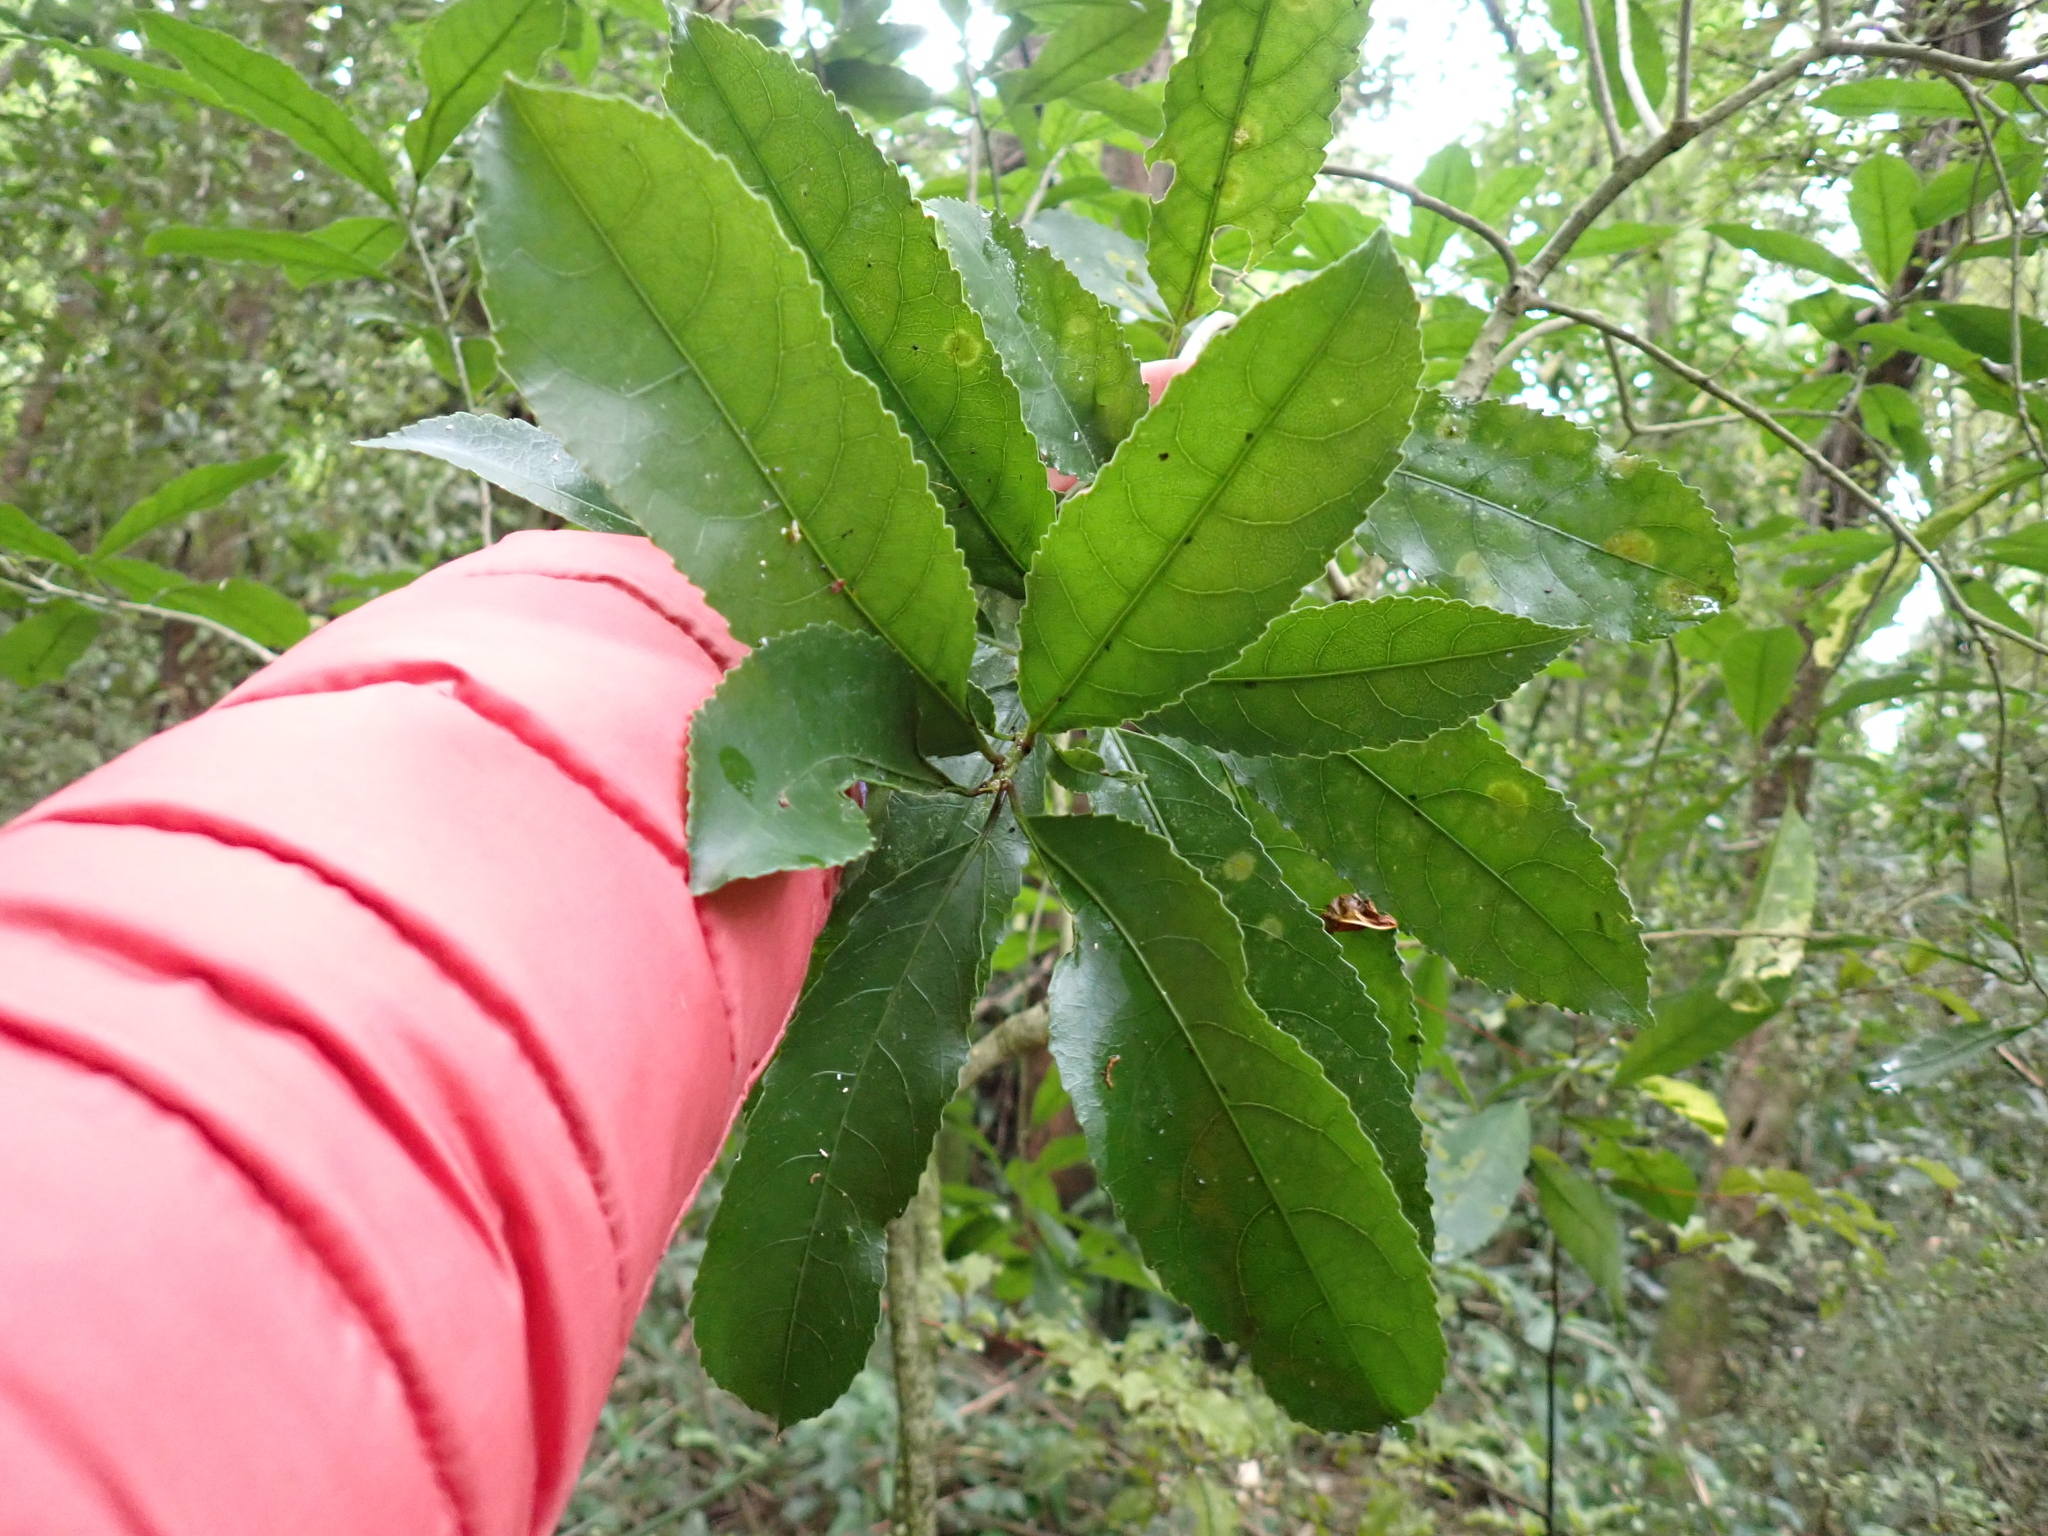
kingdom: Plantae
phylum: Tracheophyta
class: Magnoliopsida
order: Malpighiales
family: Violaceae
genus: Melicytus
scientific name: Melicytus ramiflorus
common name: Mahoe
